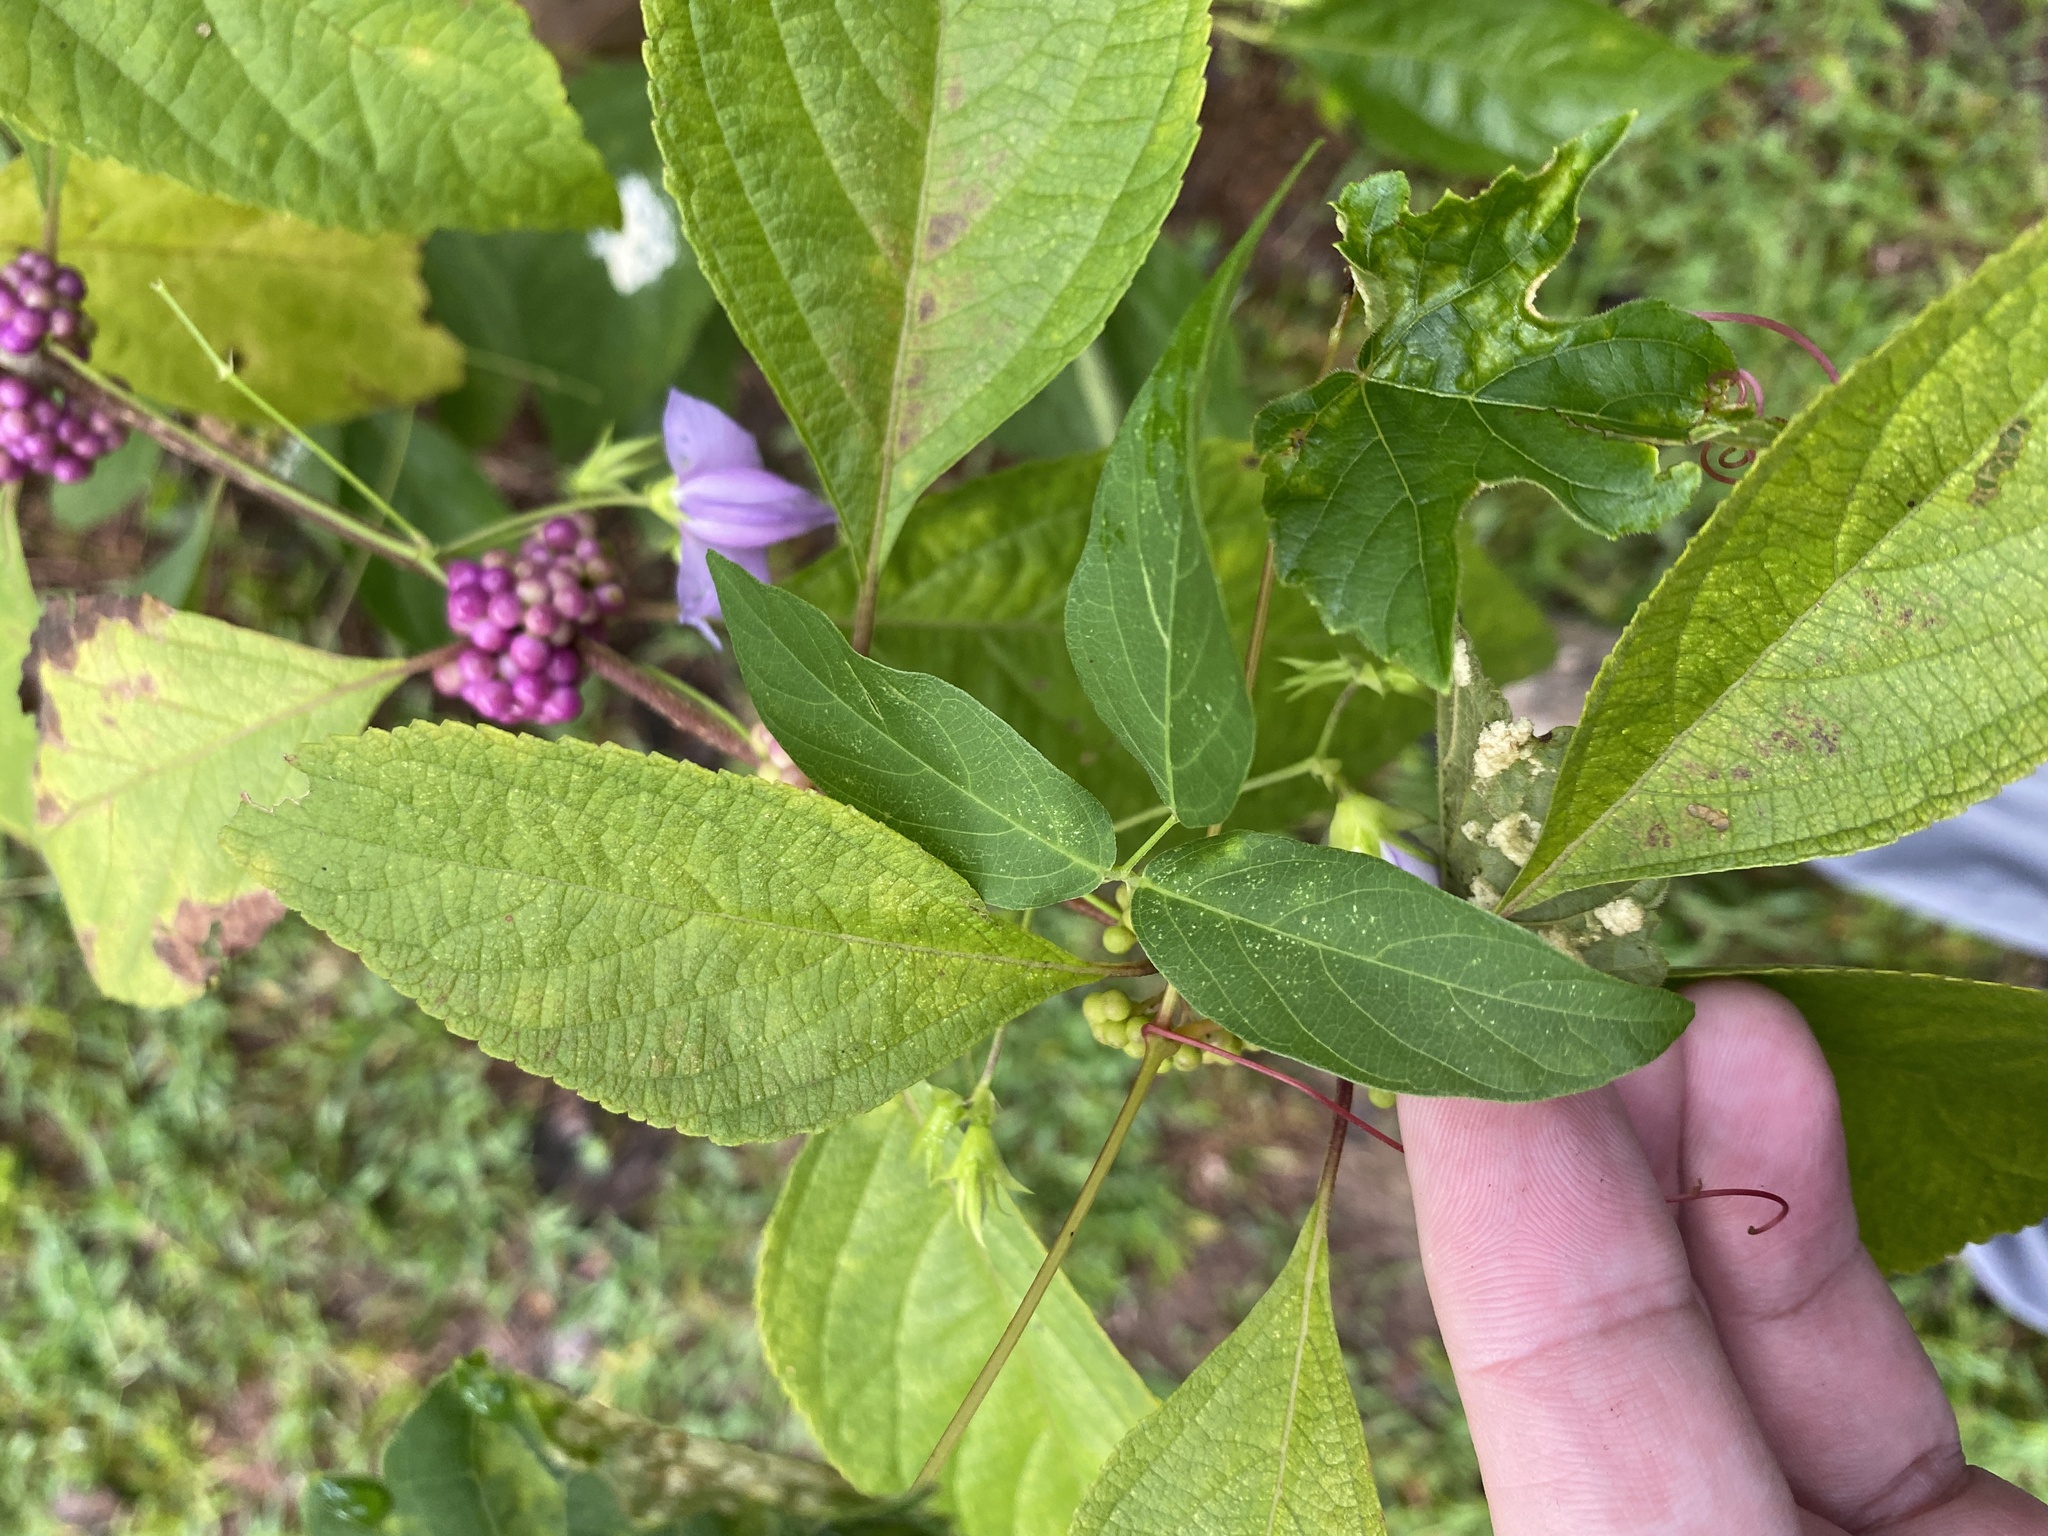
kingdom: Plantae
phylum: Tracheophyta
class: Magnoliopsida
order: Fabales
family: Fabaceae
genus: Centrosema
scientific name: Centrosema virginianum
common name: Butterfly-pea
